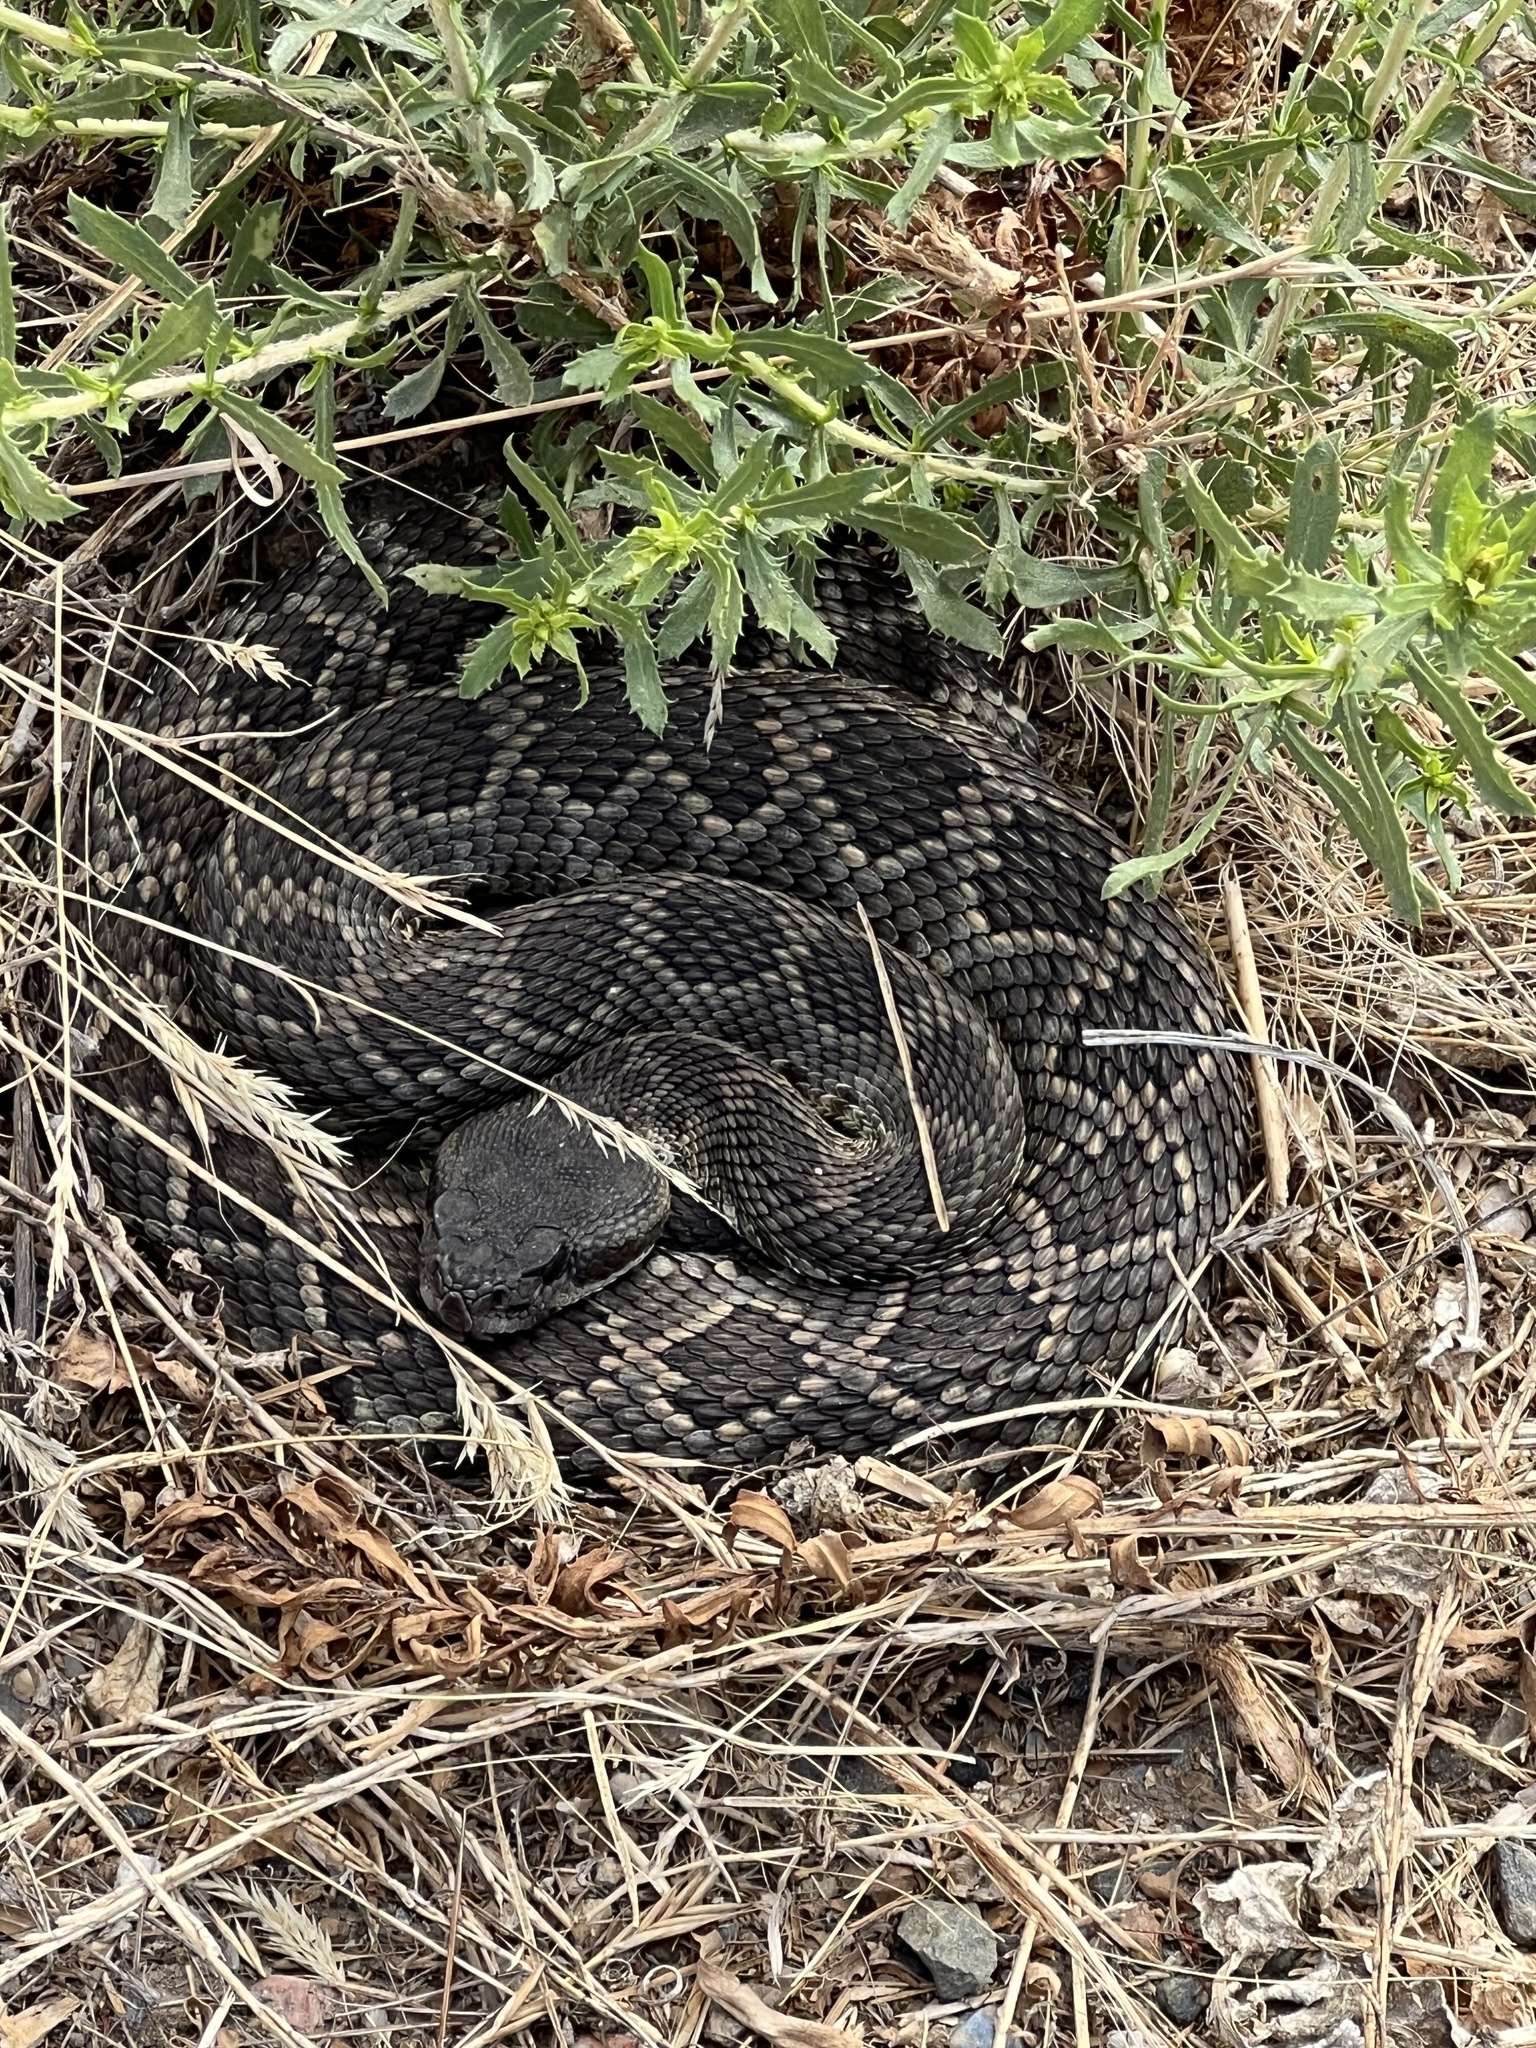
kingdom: Animalia
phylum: Chordata
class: Squamata
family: Viperidae
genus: Crotalus
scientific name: Crotalus oreganus
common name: Abyssus
